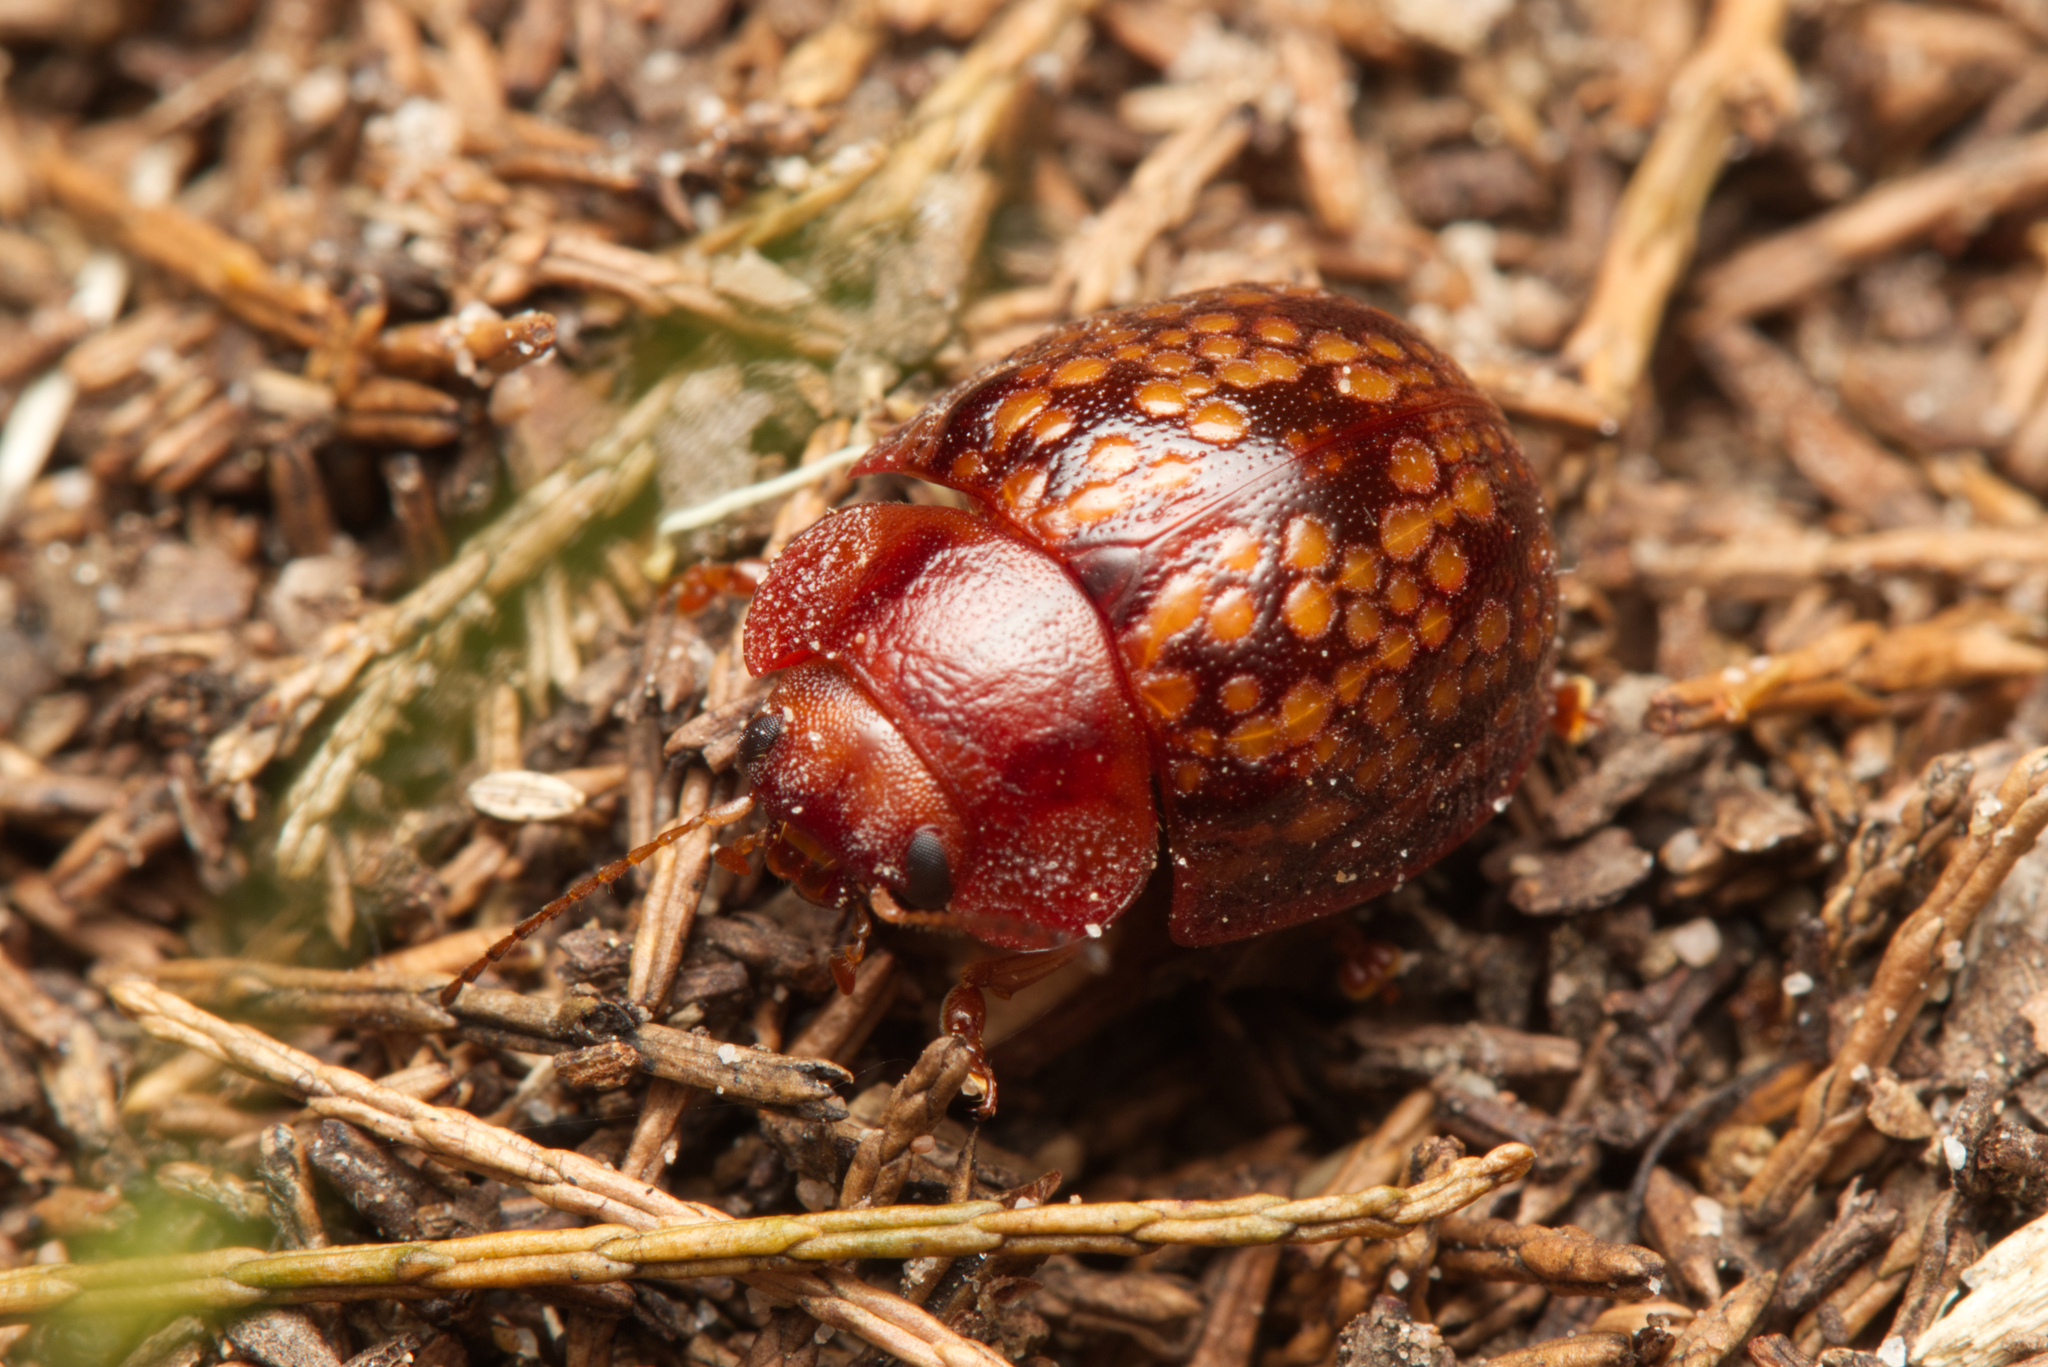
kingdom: Animalia
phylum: Arthropoda
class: Insecta
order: Coleoptera
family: Chrysomelidae
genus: Trachymela
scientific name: Trachymela
